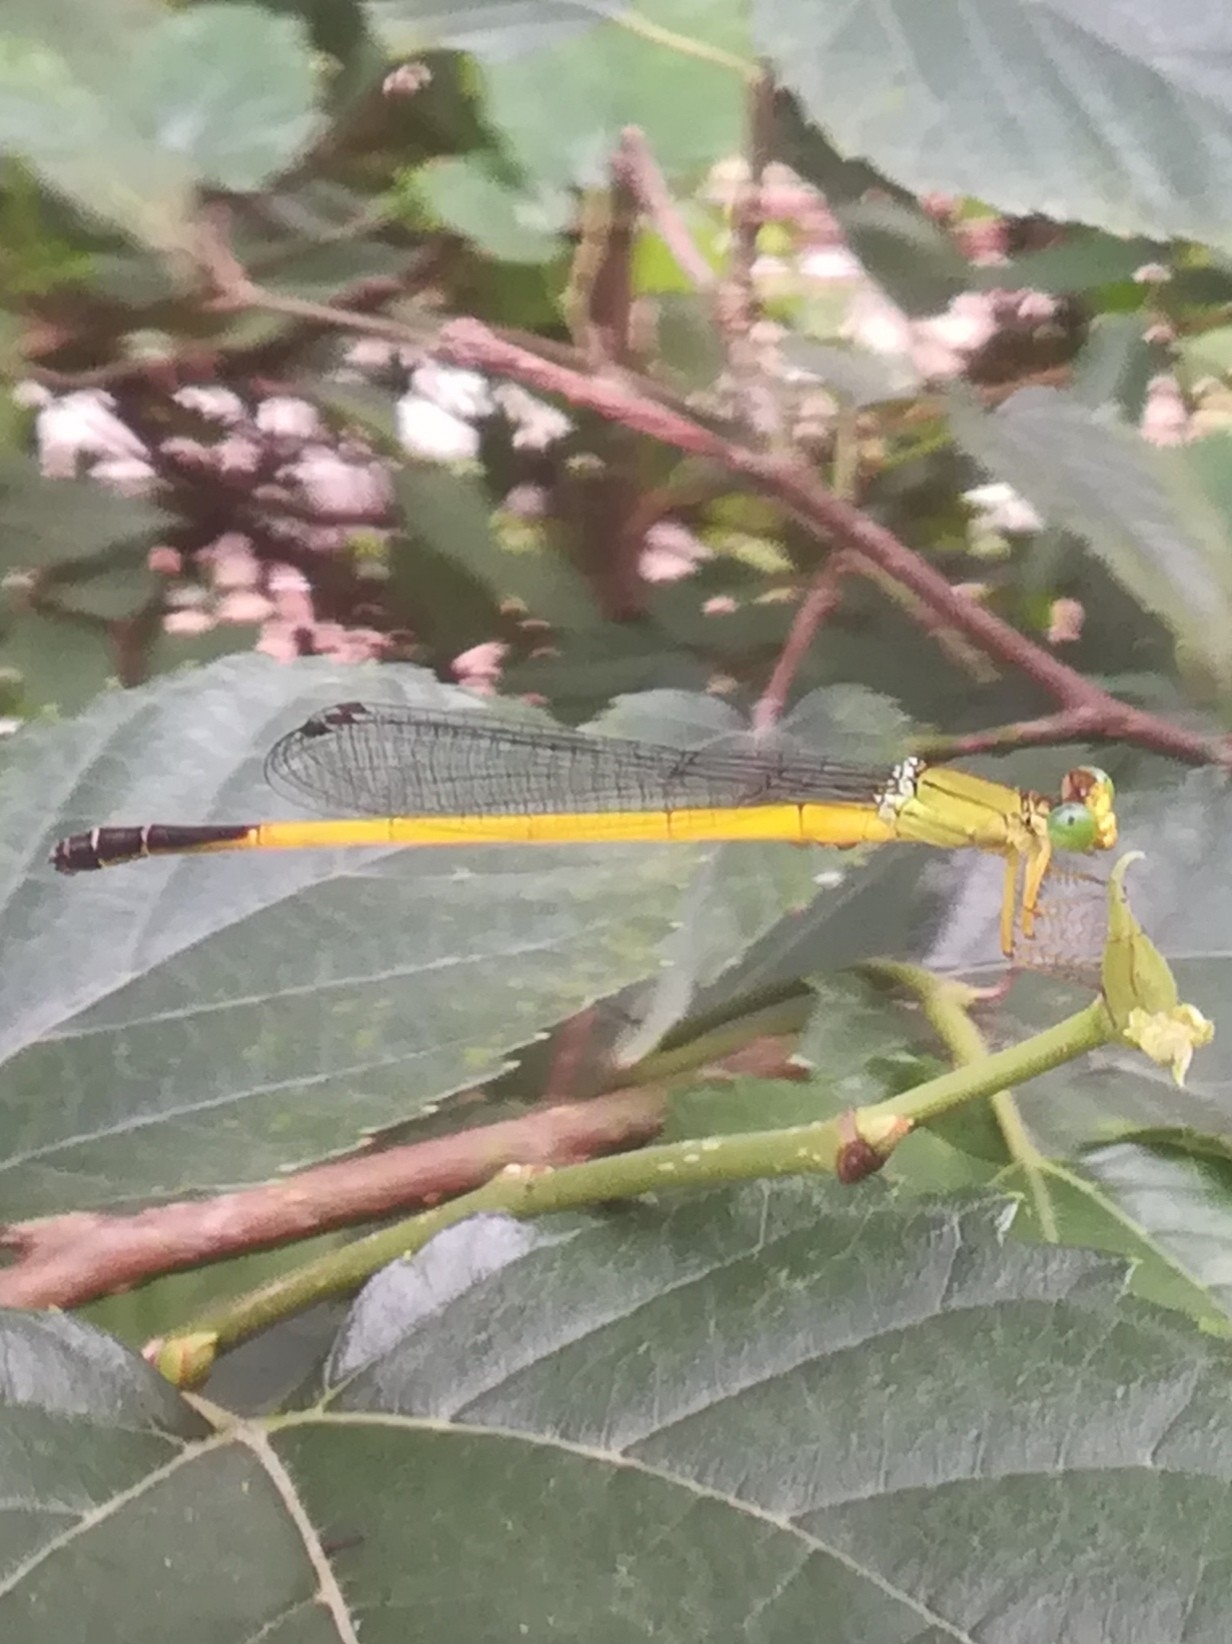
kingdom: Animalia
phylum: Arthropoda
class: Insecta
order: Odonata
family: Coenagrionidae
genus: Ceriagrion
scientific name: Ceriagrion fallax
